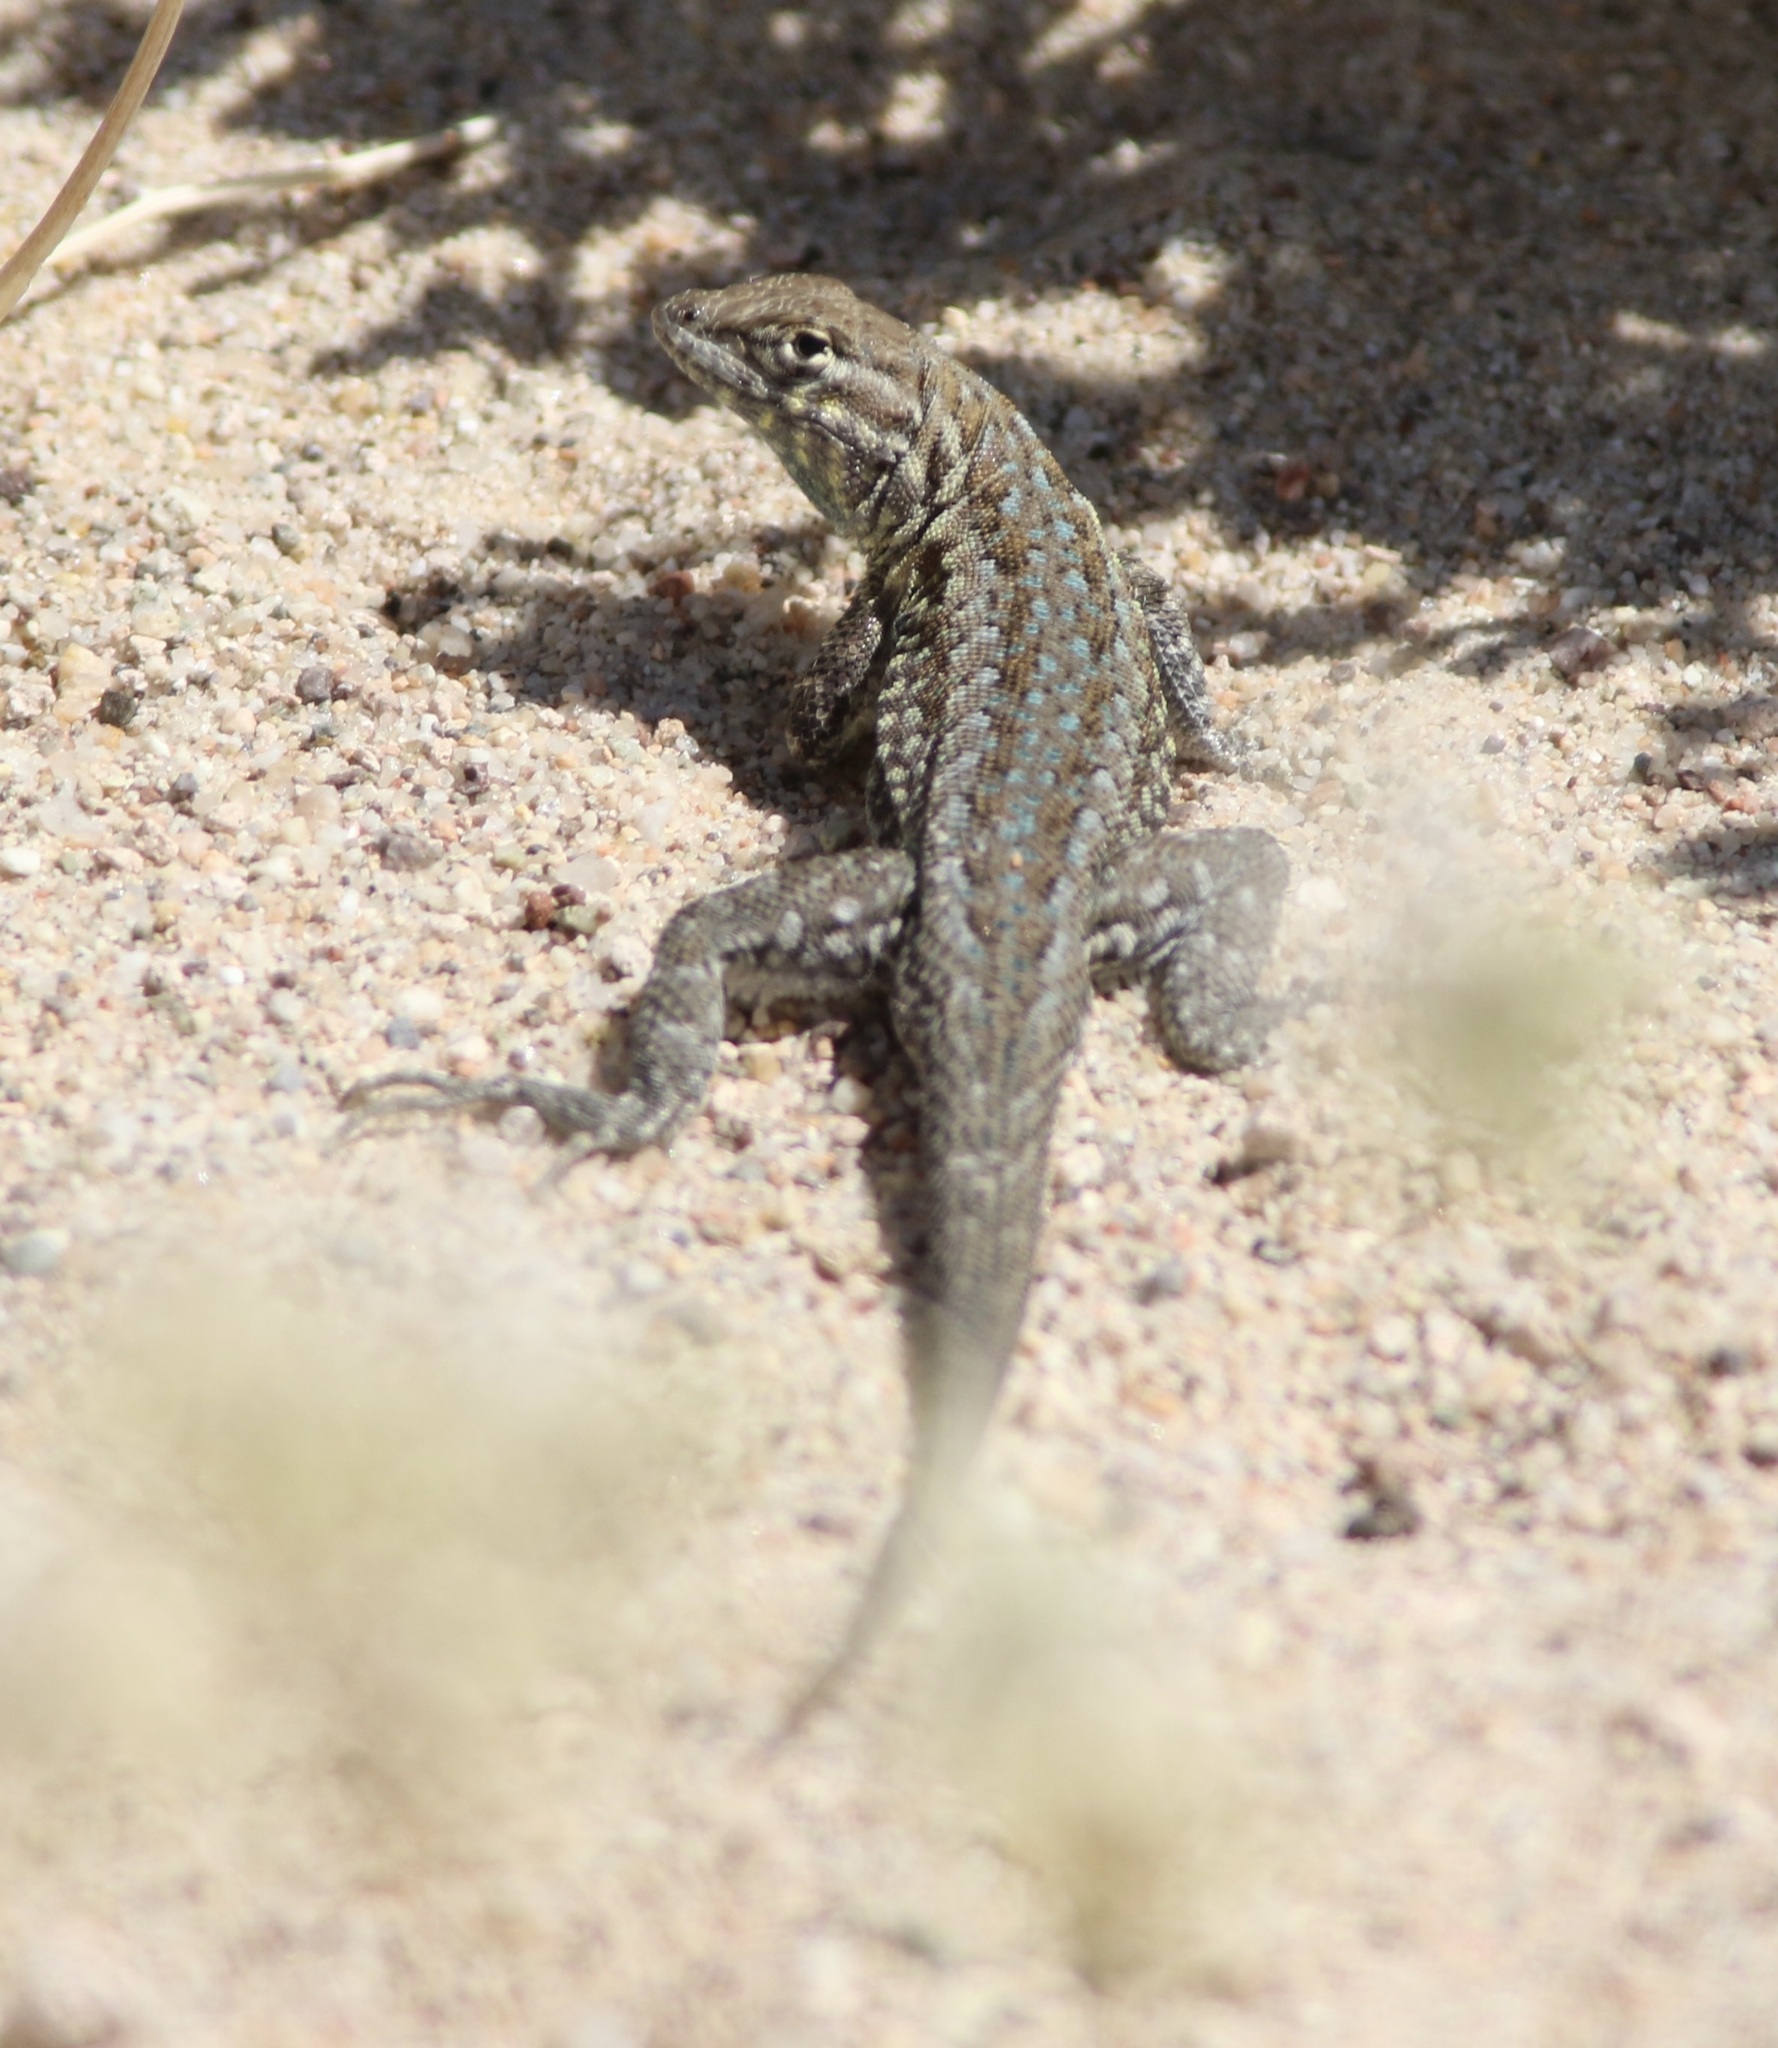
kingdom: Animalia
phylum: Chordata
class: Squamata
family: Phrynosomatidae
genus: Uta
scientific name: Uta stansburiana
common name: Side-blotched lizard
